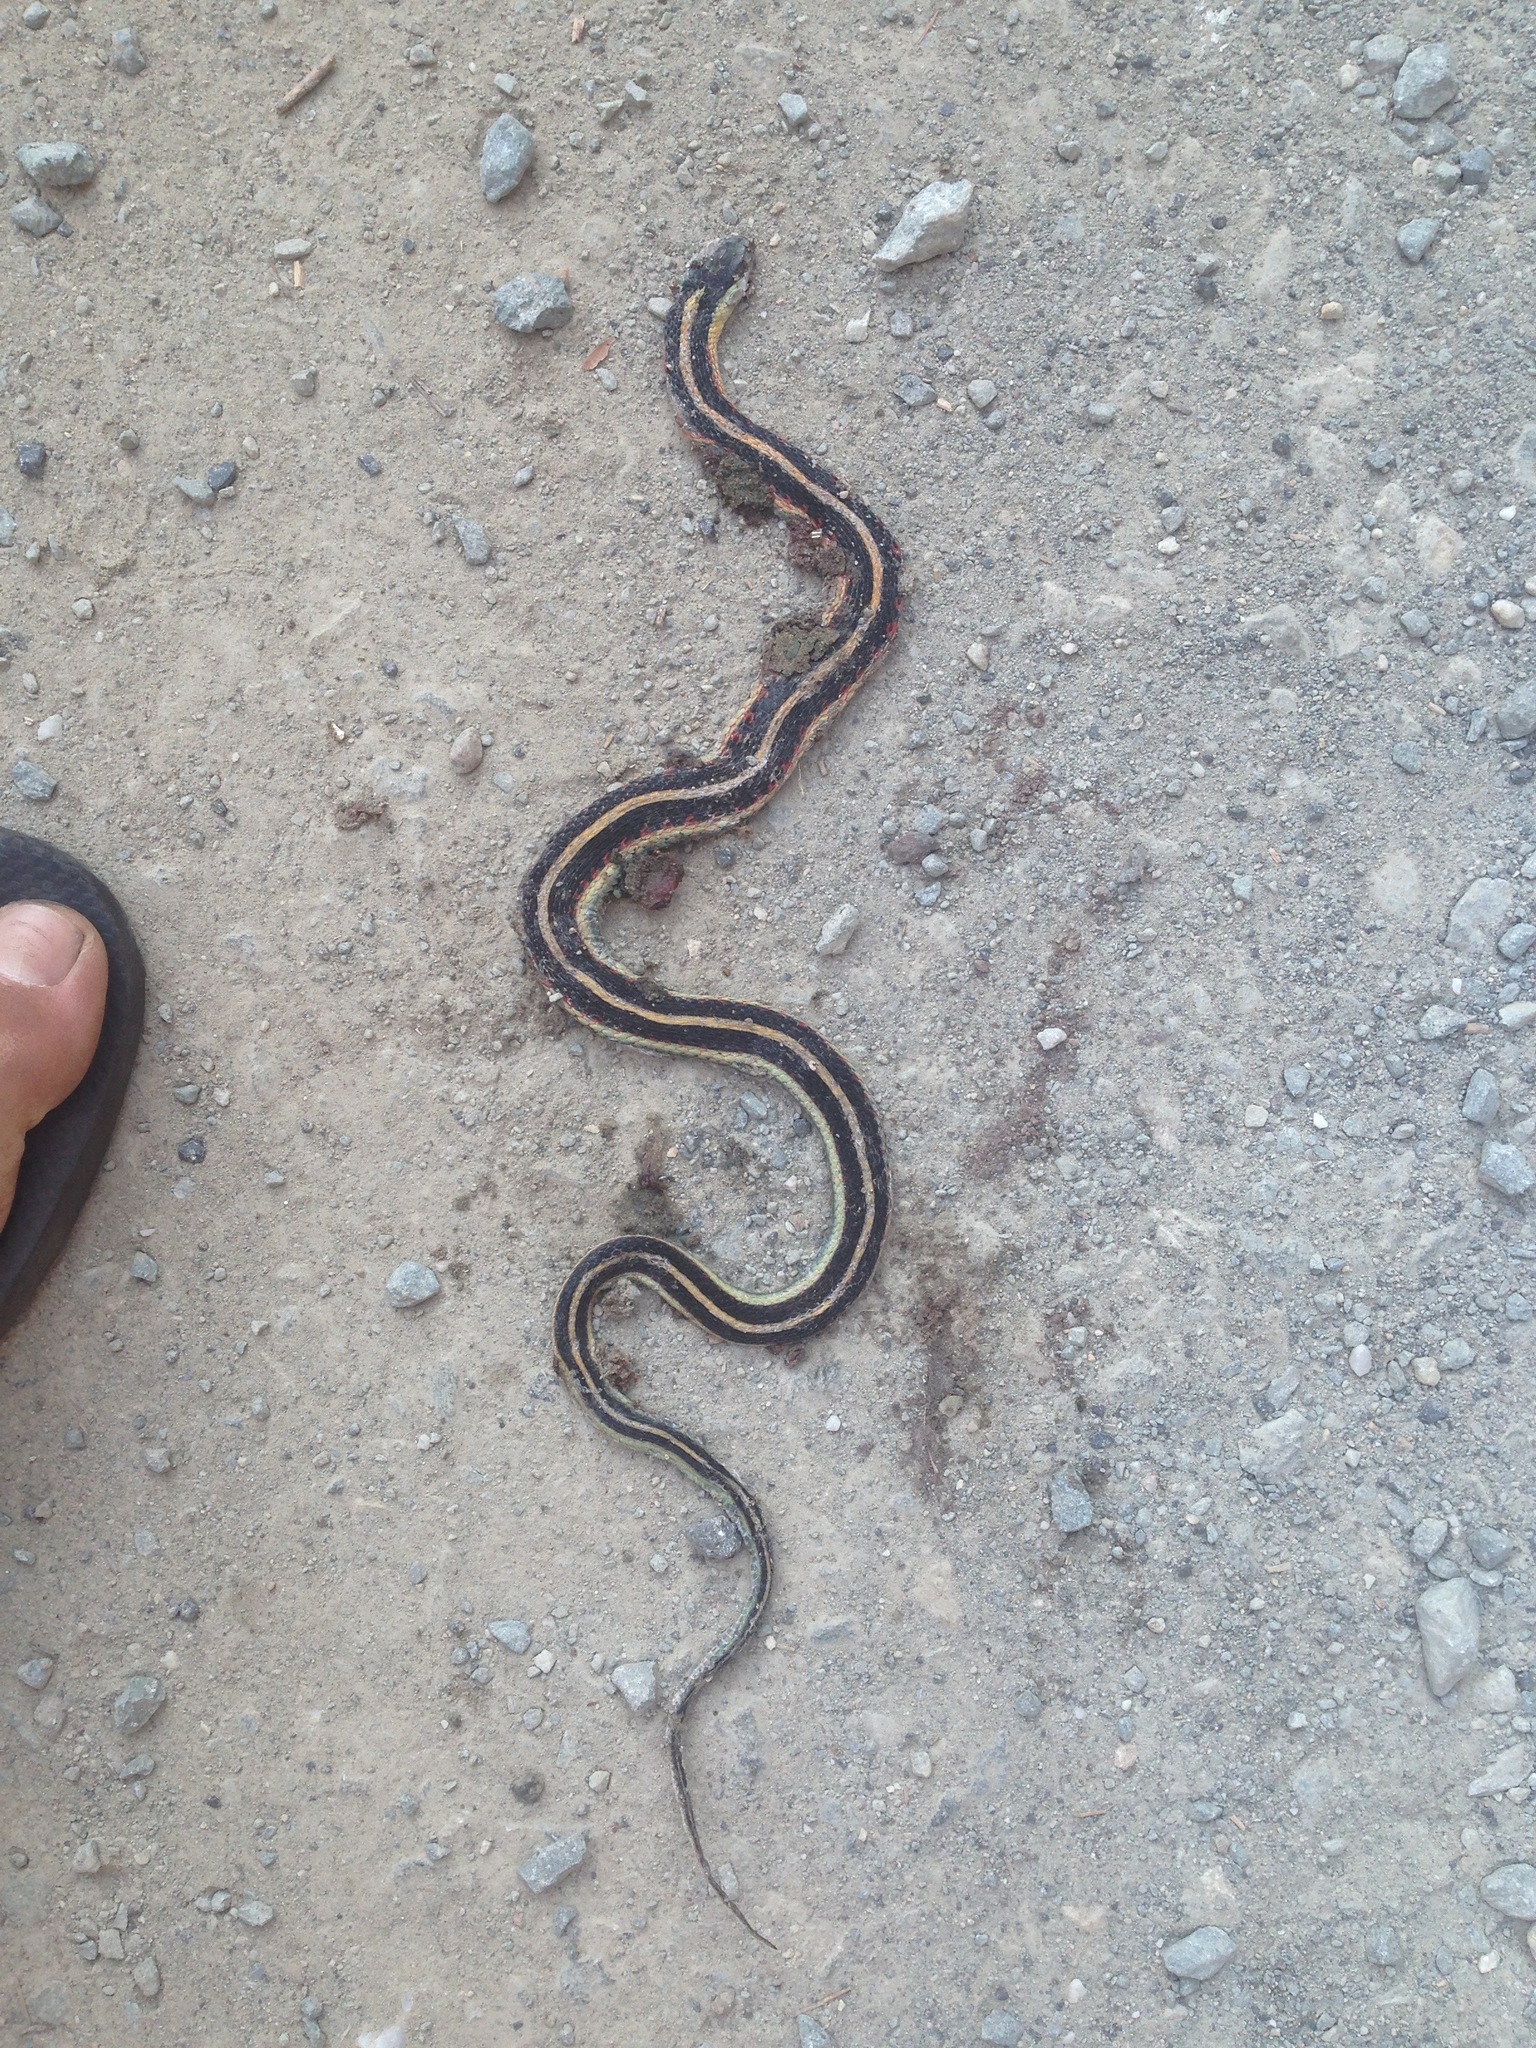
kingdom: Animalia
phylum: Chordata
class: Squamata
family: Colubridae
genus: Thamnophis
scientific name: Thamnophis sirtalis
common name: Common garter snake
